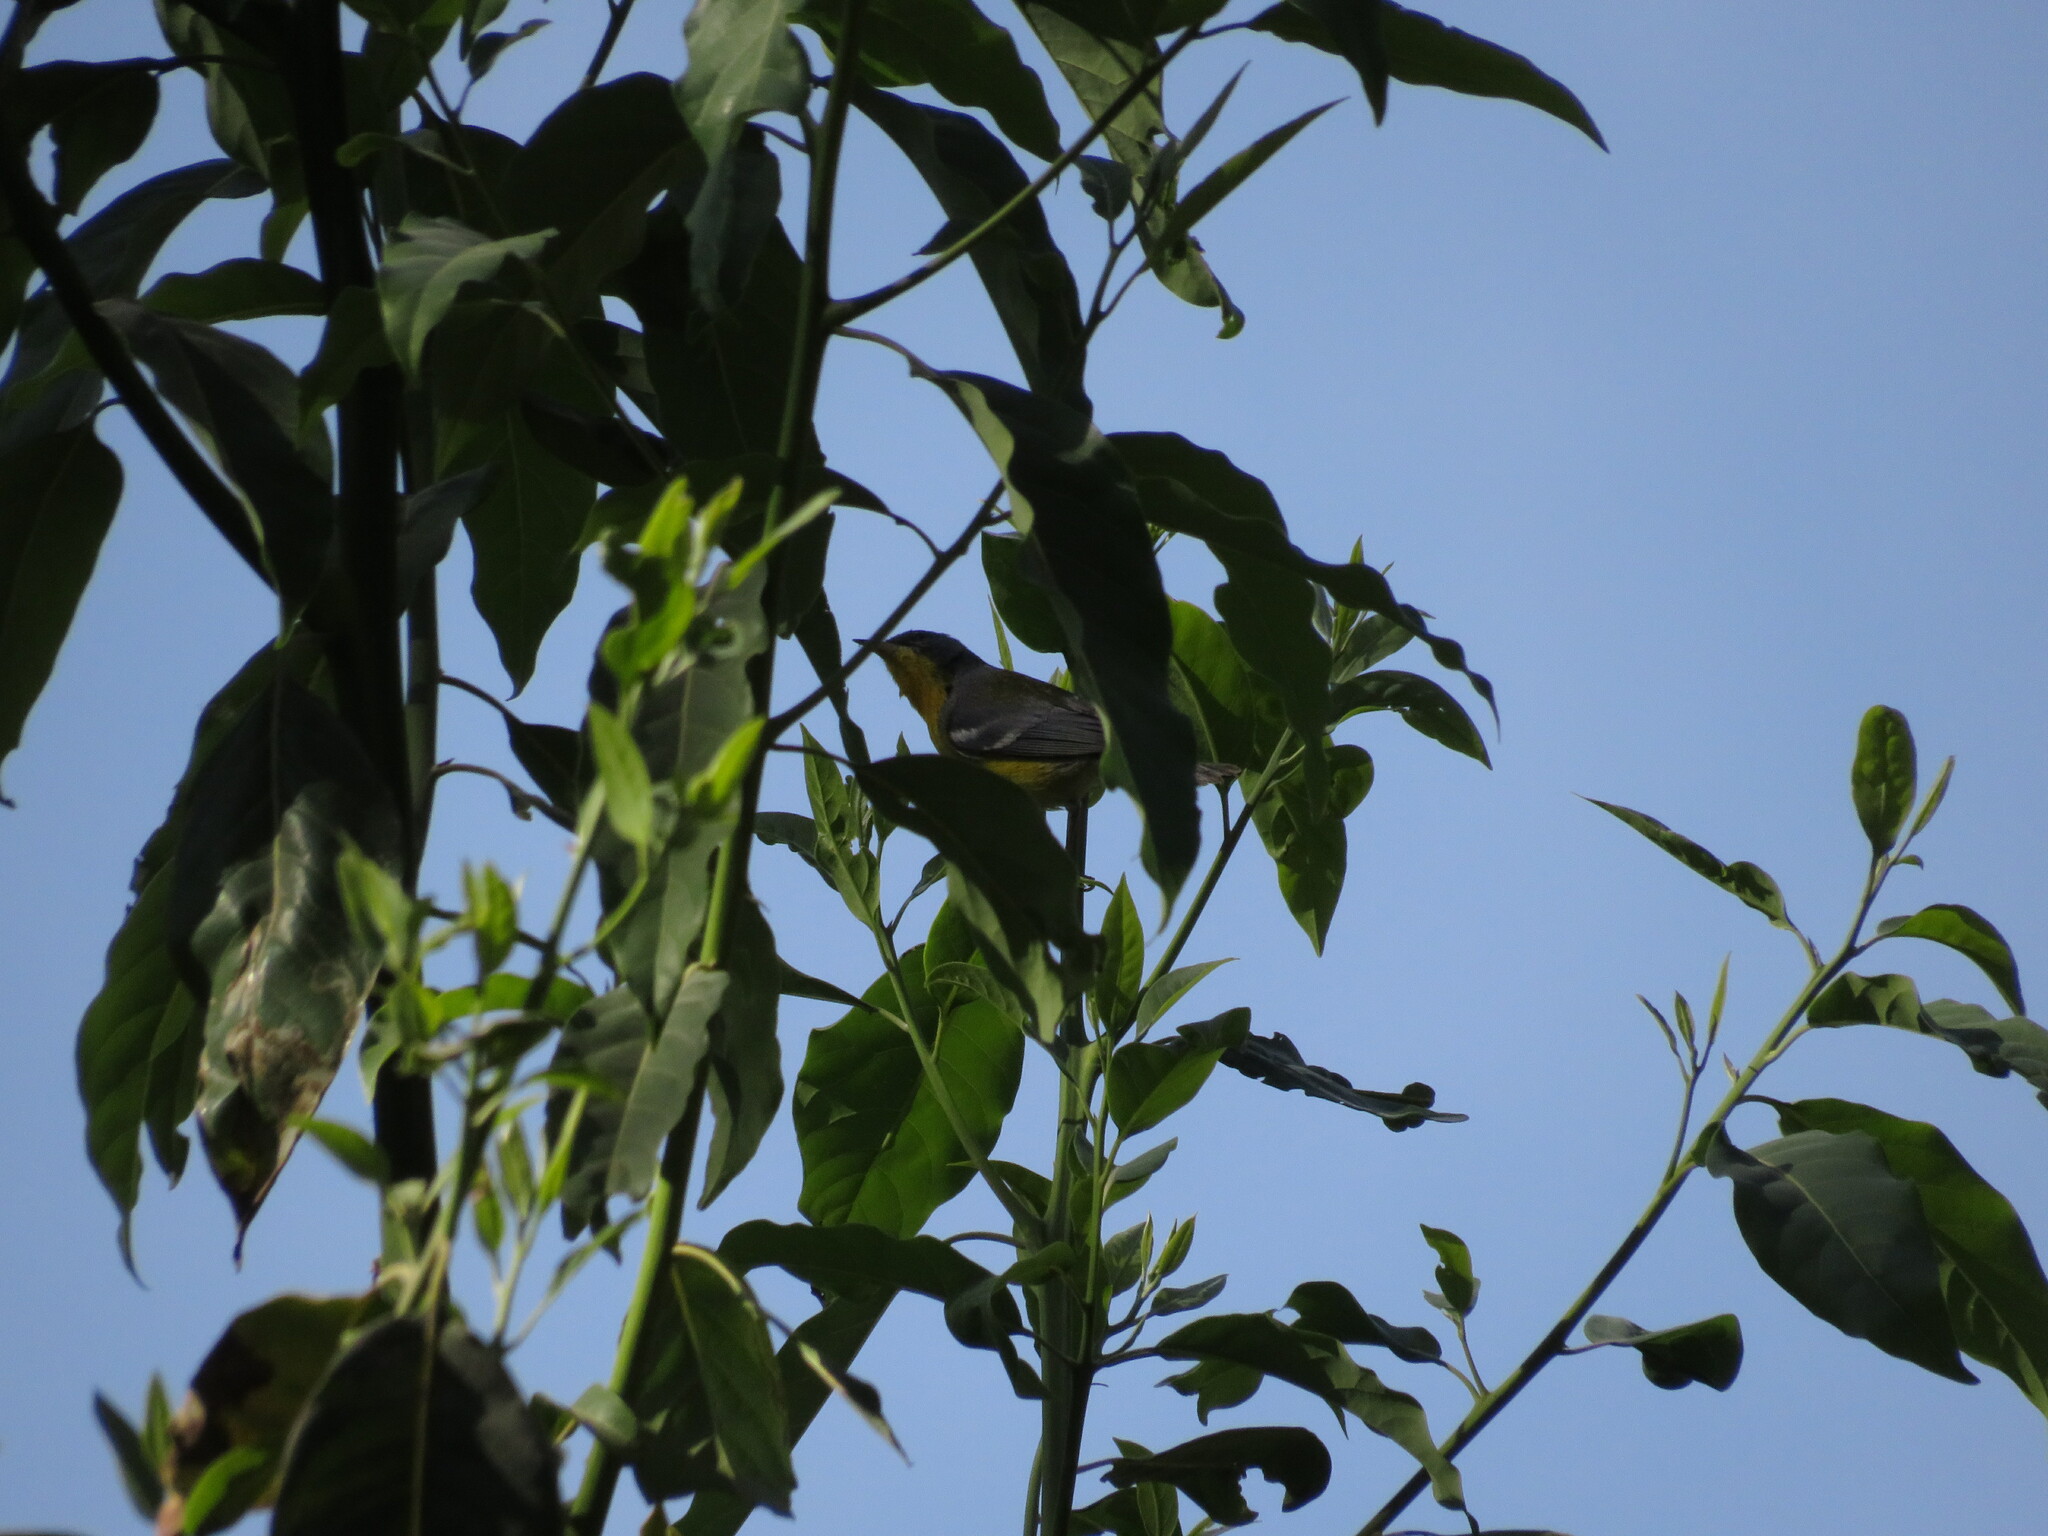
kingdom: Animalia
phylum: Chordata
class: Aves
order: Passeriformes
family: Parulidae
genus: Setophaga
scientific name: Setophaga pitiayumi
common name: Tropical parula
